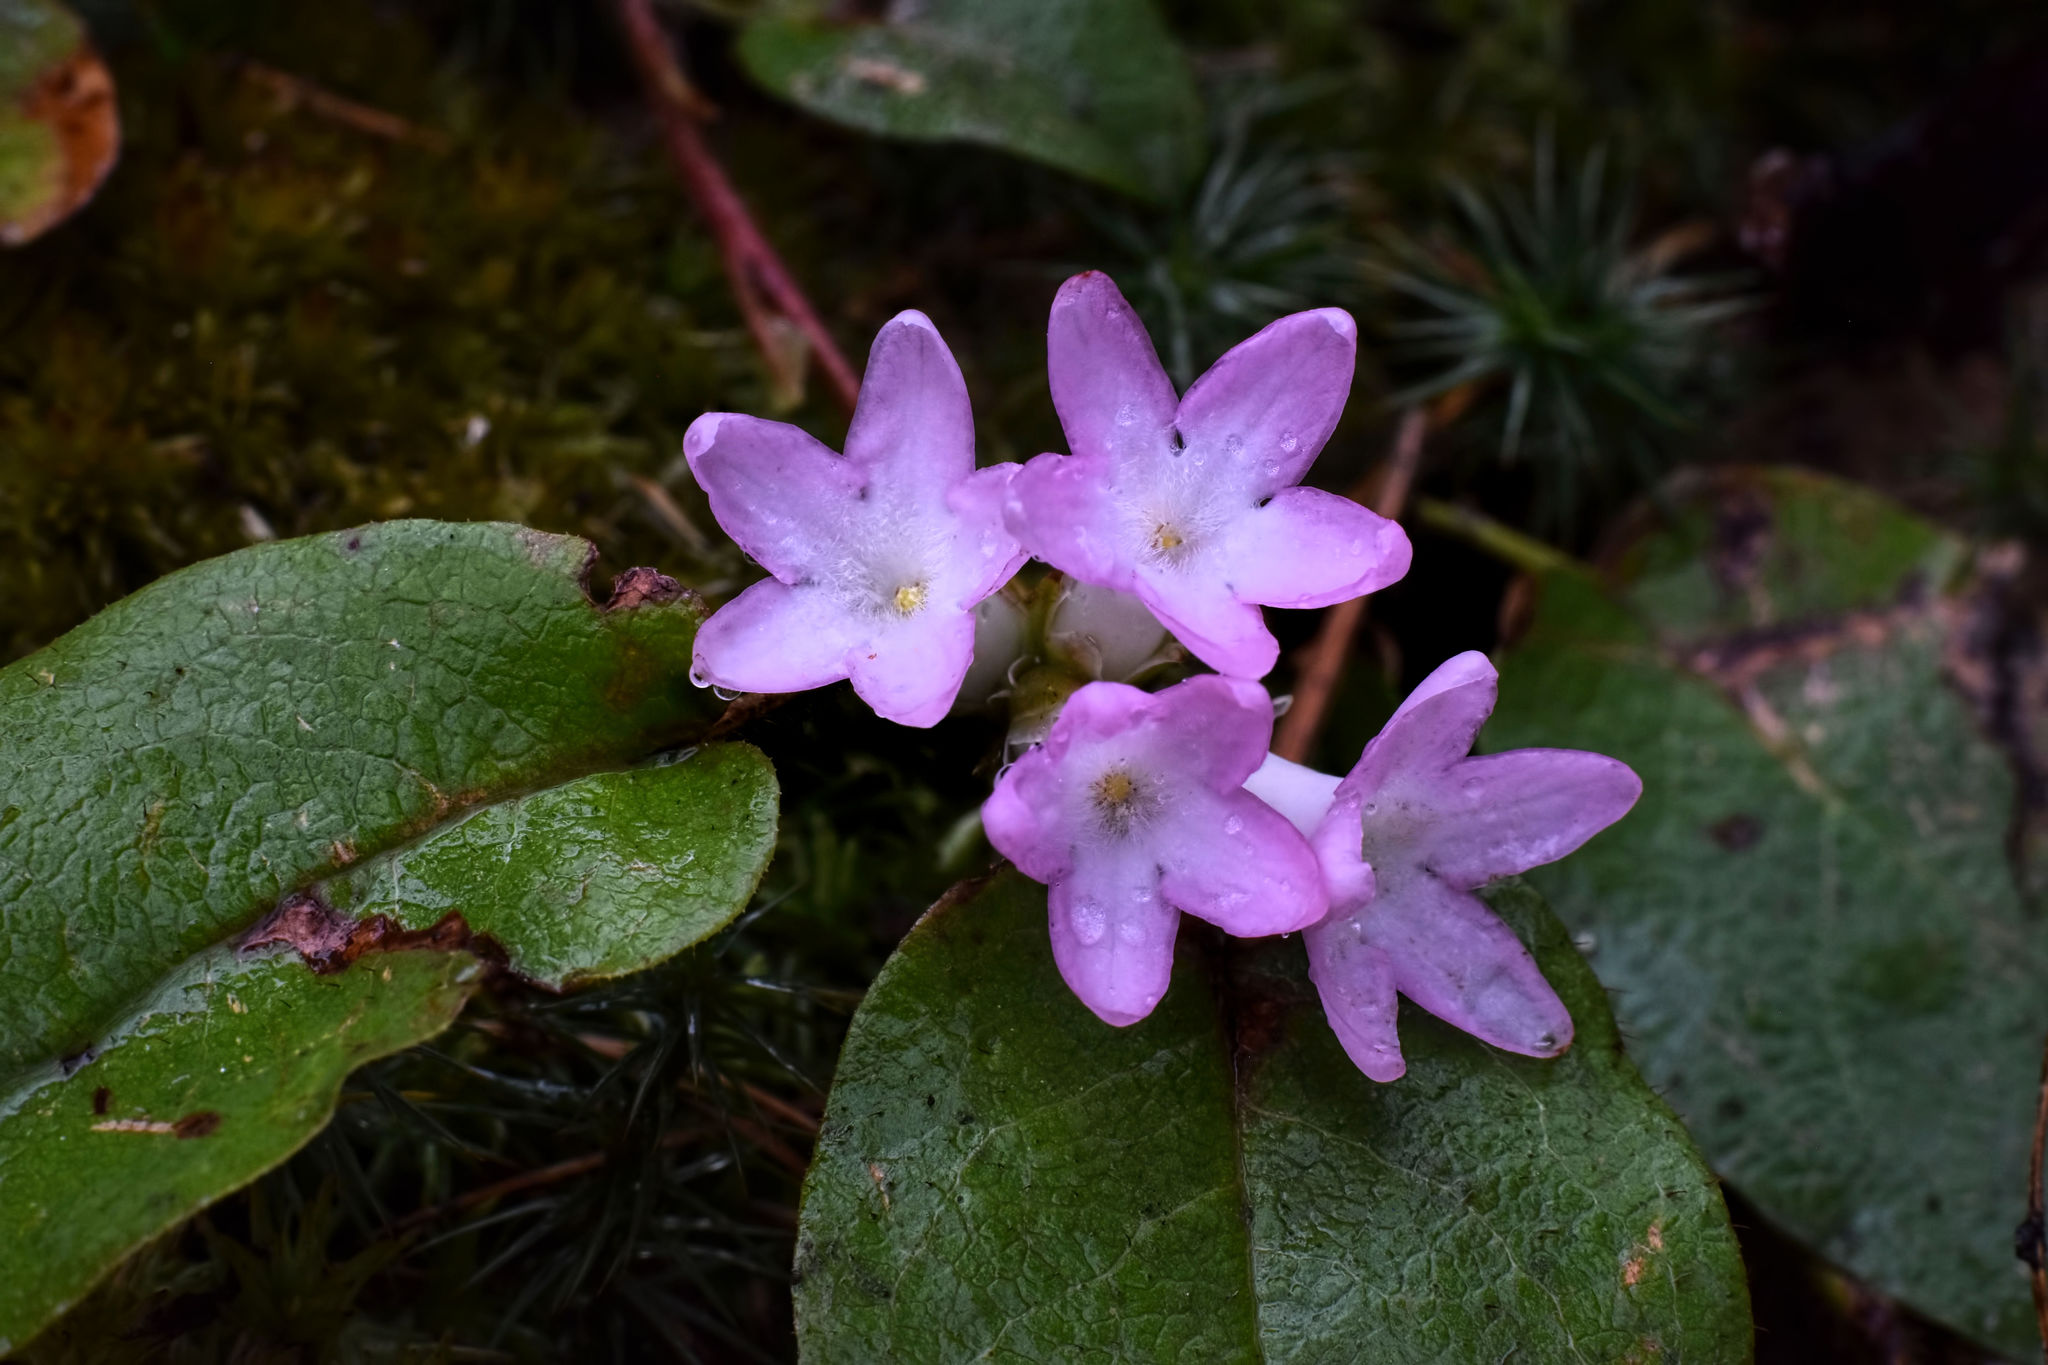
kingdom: Plantae
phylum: Tracheophyta
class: Magnoliopsida
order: Ericales
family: Ericaceae
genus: Epigaea
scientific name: Epigaea repens
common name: Gravelroot
